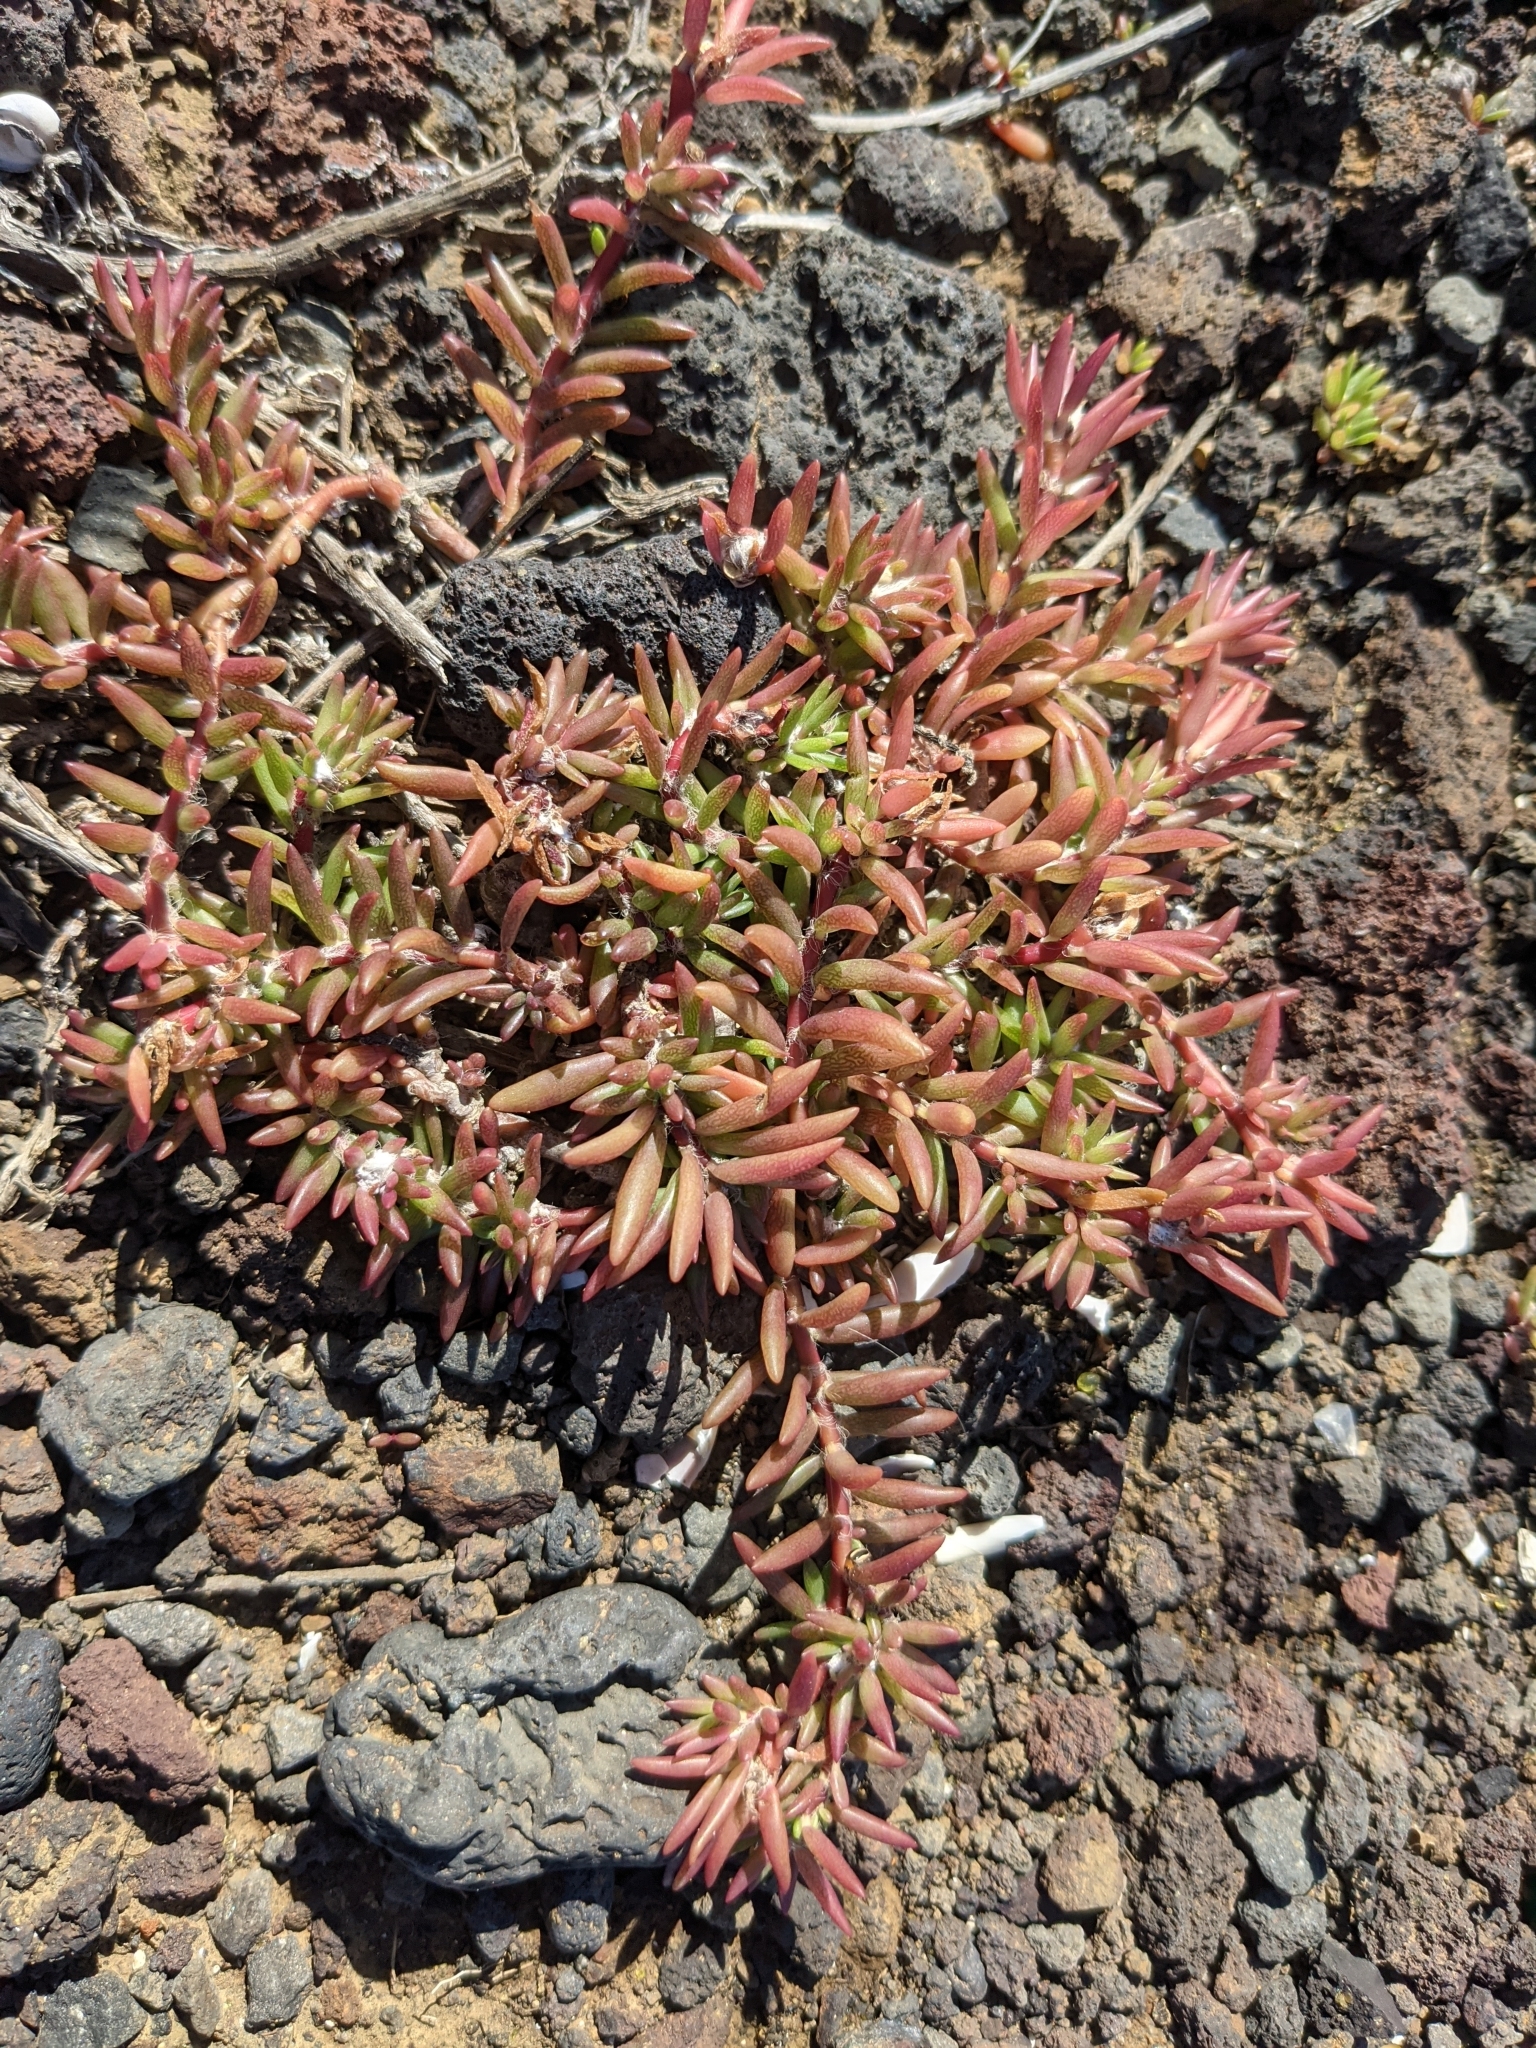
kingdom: Plantae
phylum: Tracheophyta
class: Magnoliopsida
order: Caryophyllales
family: Portulacaceae
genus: Portulaca
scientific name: Portulaca pilosa
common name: Kiss me quick
